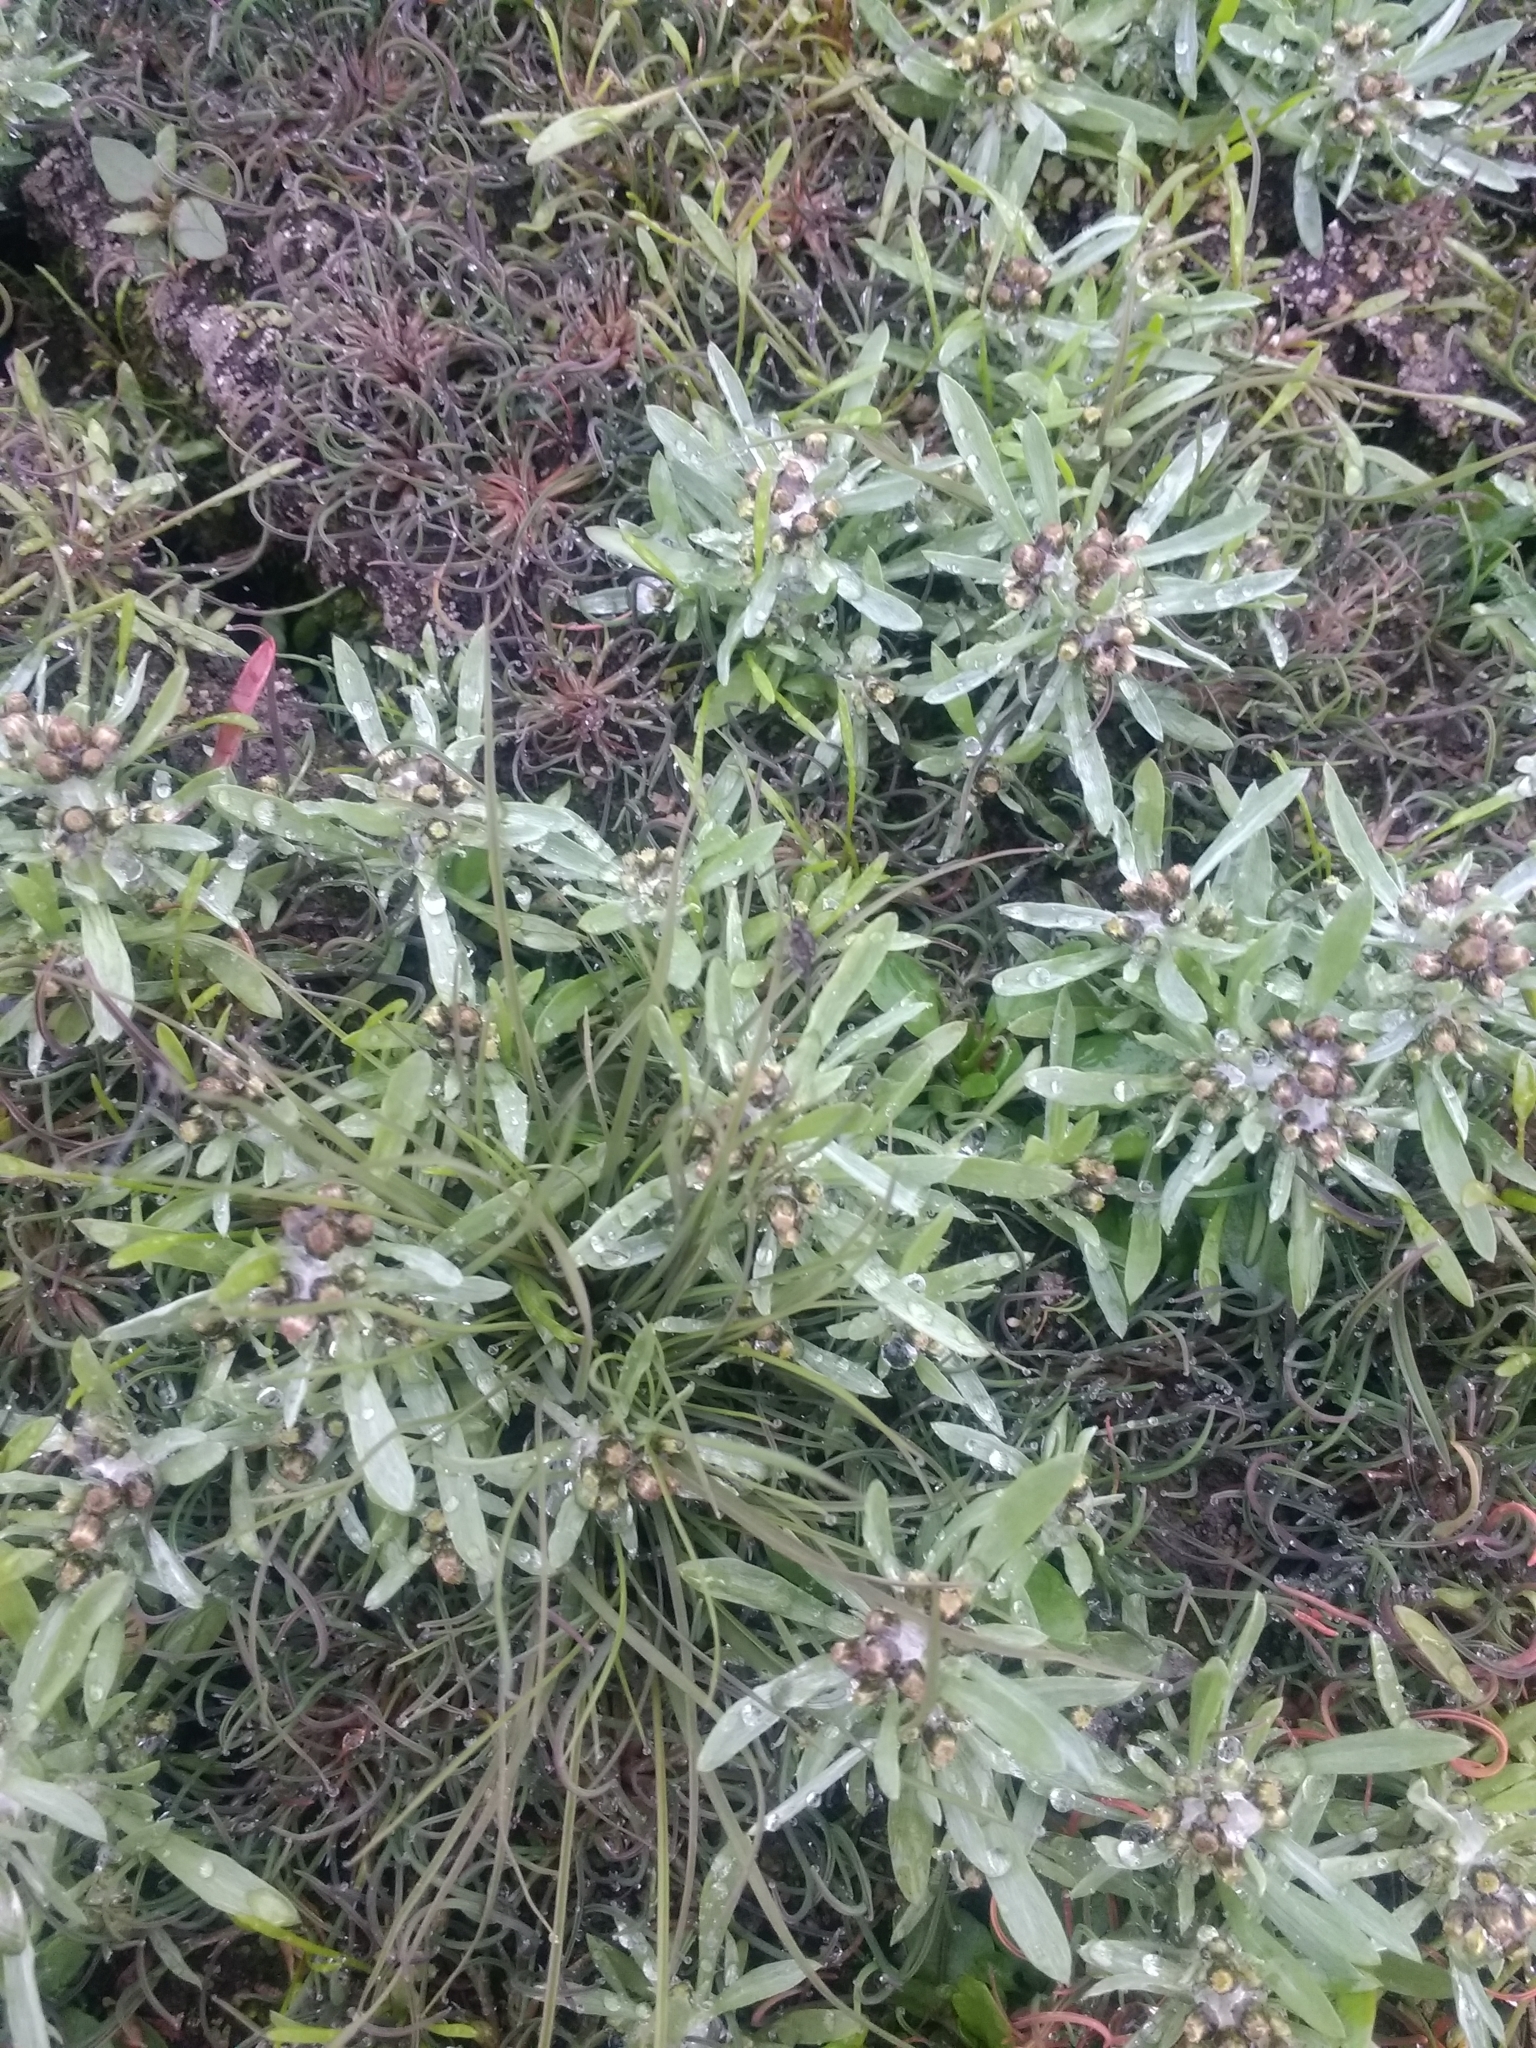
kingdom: Plantae
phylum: Tracheophyta
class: Magnoliopsida
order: Asterales
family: Asteraceae
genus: Gnaphalium
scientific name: Gnaphalium uliginosum
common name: Marsh cudweed
